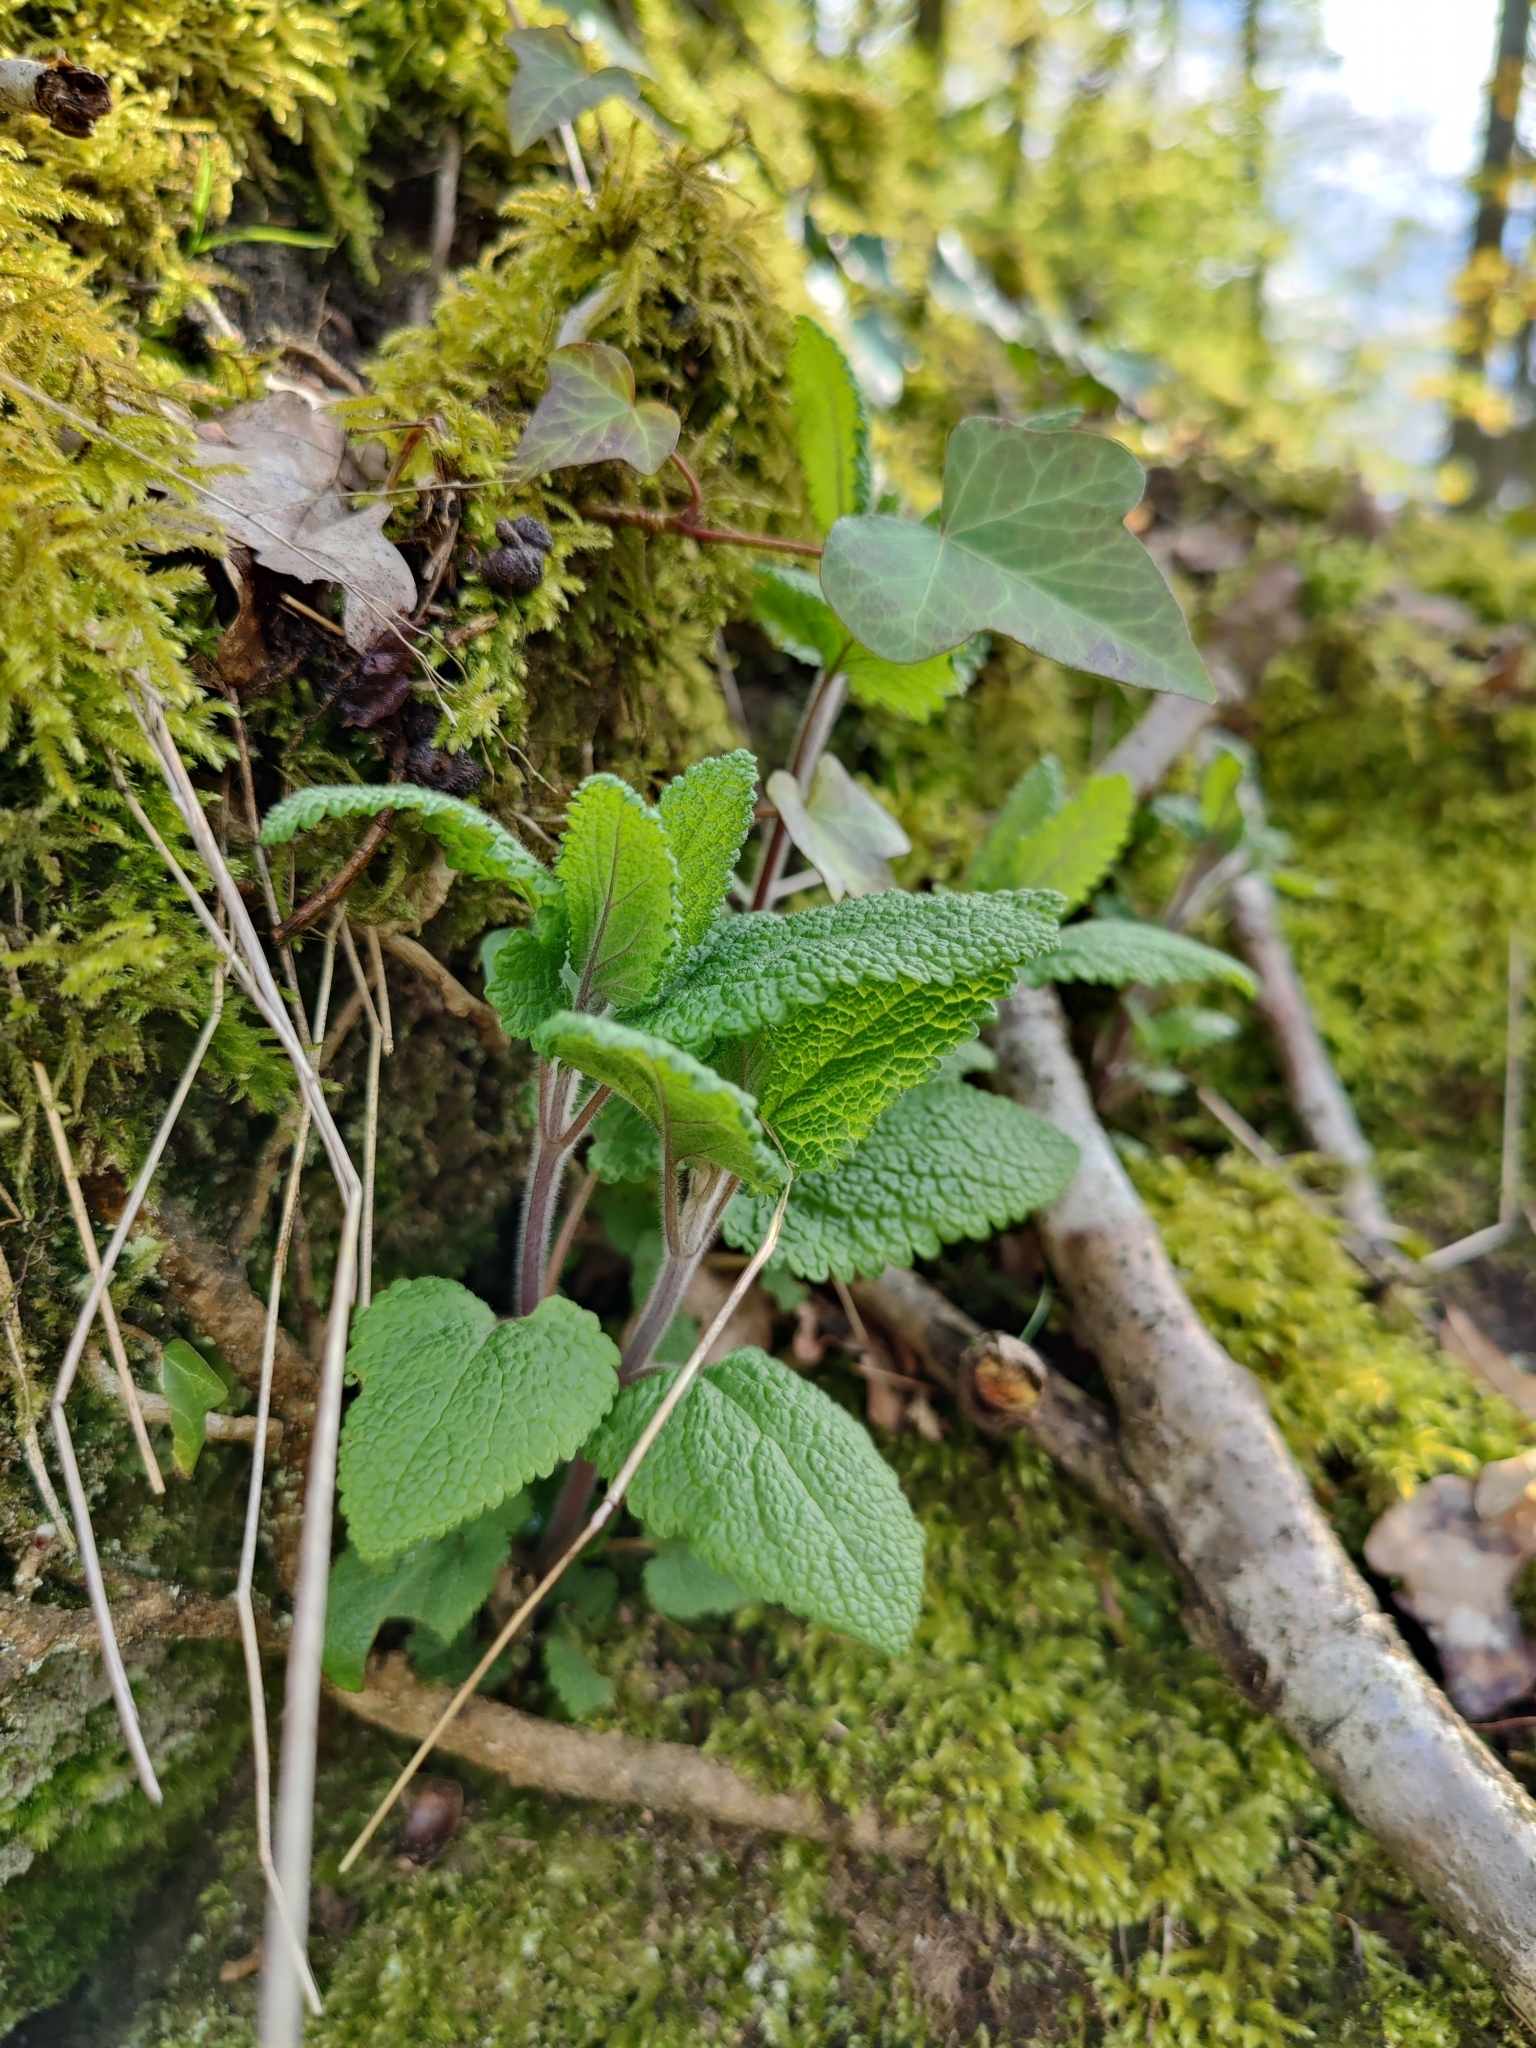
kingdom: Plantae
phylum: Tracheophyta
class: Magnoliopsida
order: Lamiales
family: Lamiaceae
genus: Teucrium
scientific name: Teucrium scorodonia
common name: Woodland germander
